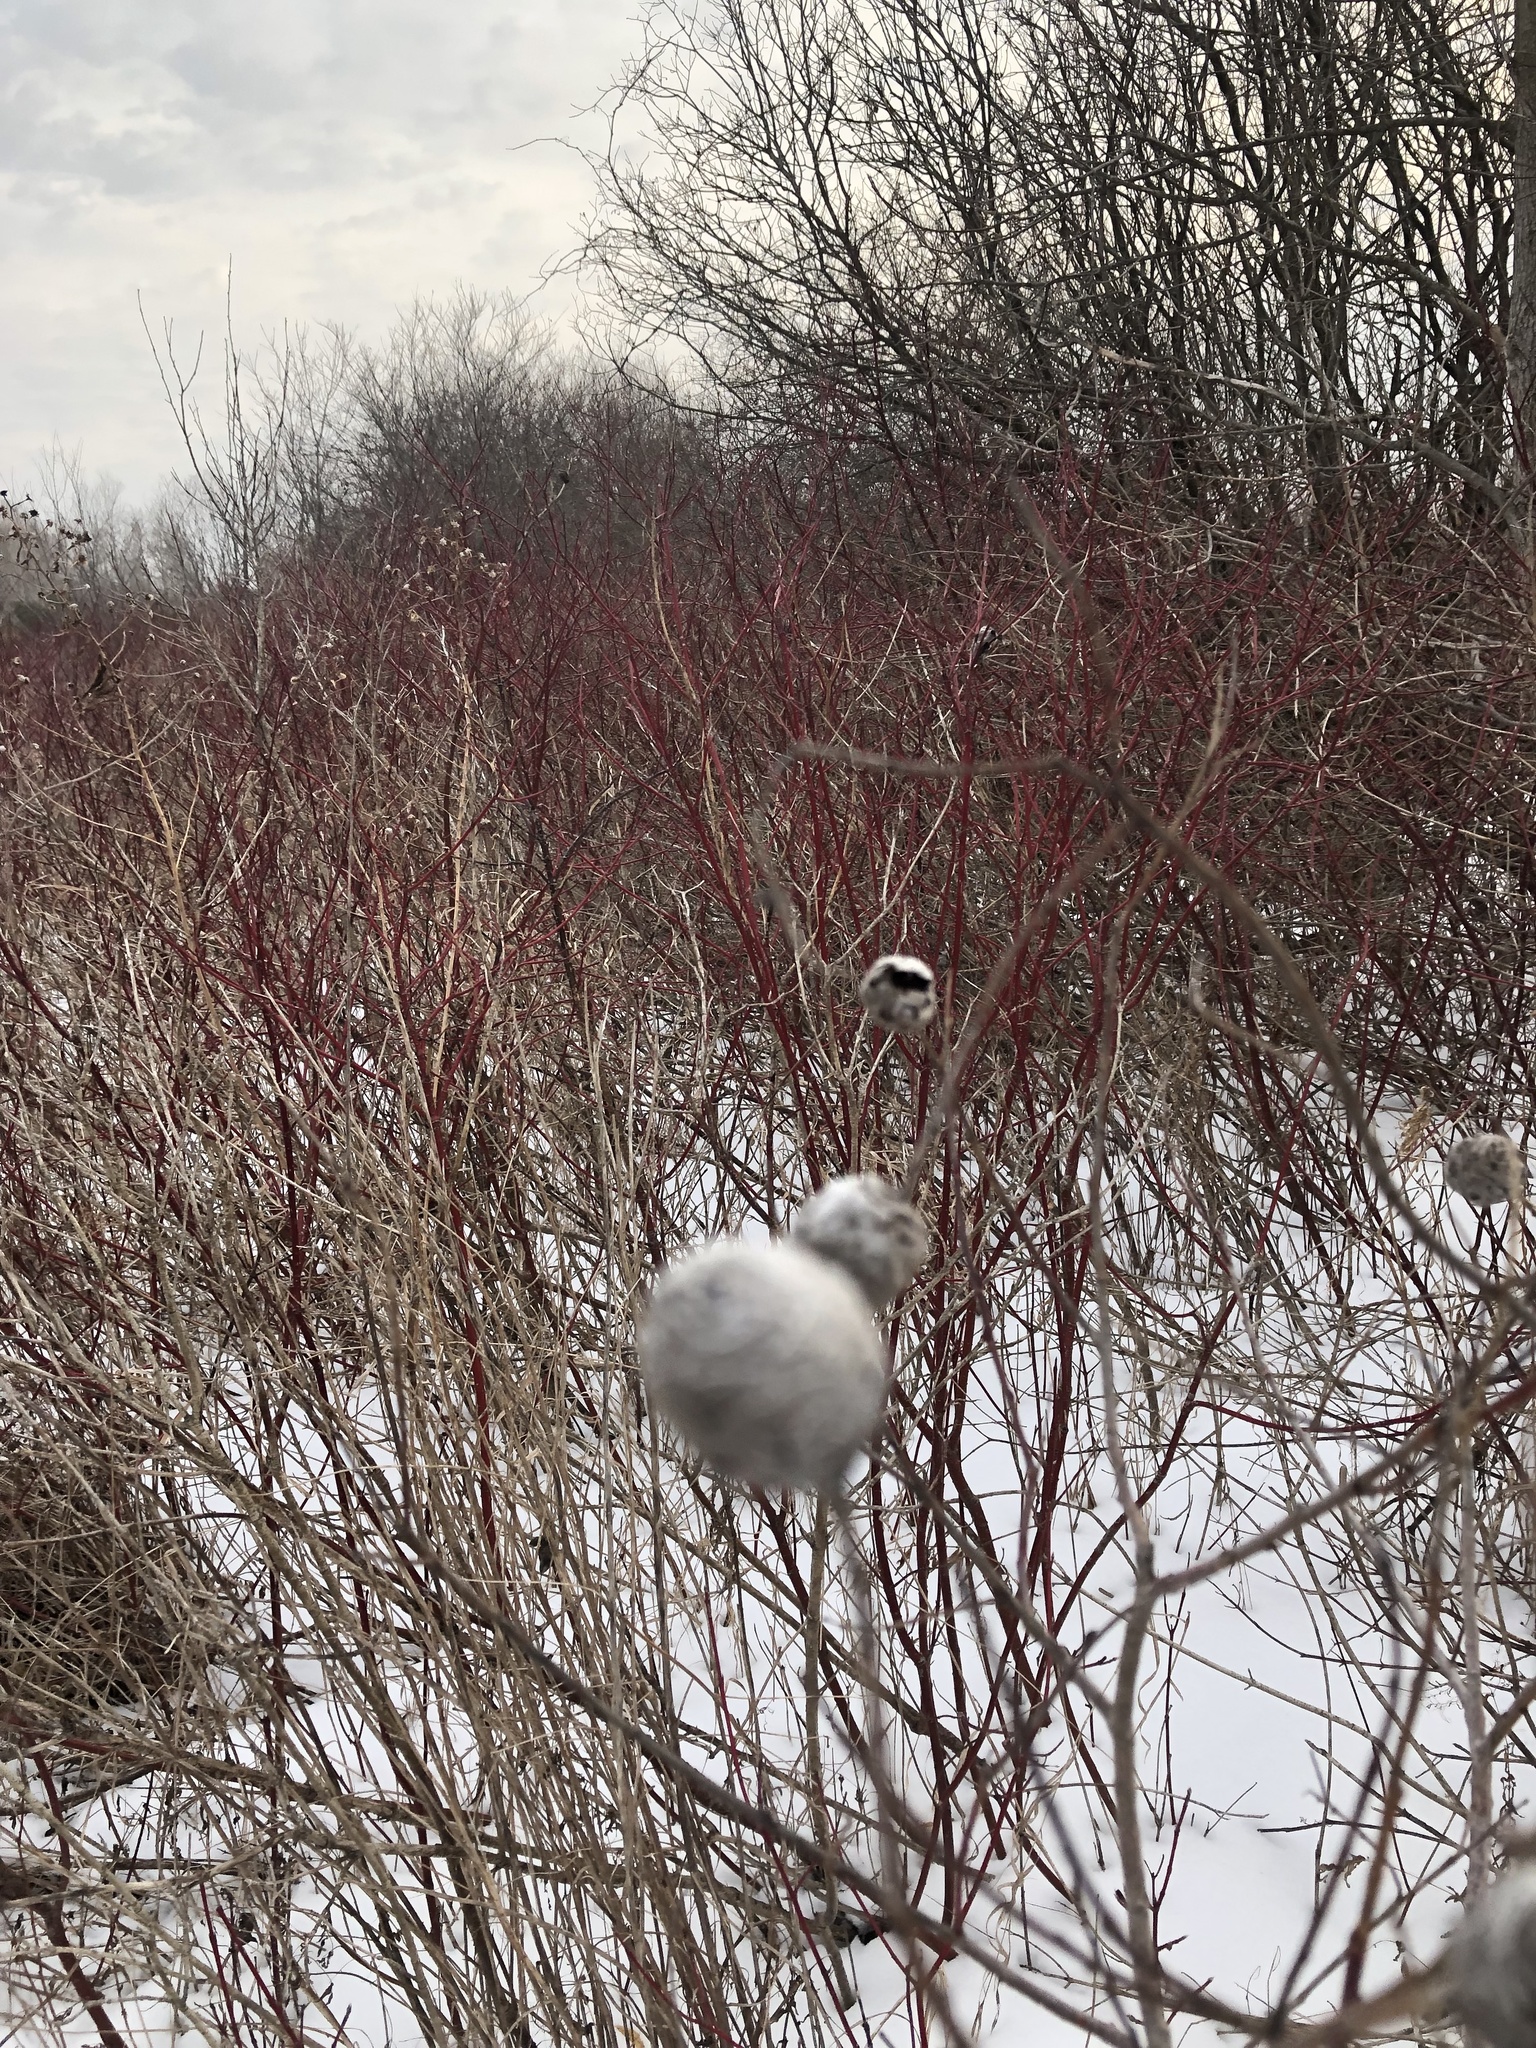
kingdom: Animalia
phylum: Arthropoda
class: Insecta
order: Diptera
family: Cecidomyiidae
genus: Rabdophaga
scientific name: Rabdophaga strobiloides
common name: Willow pinecone gall midge
